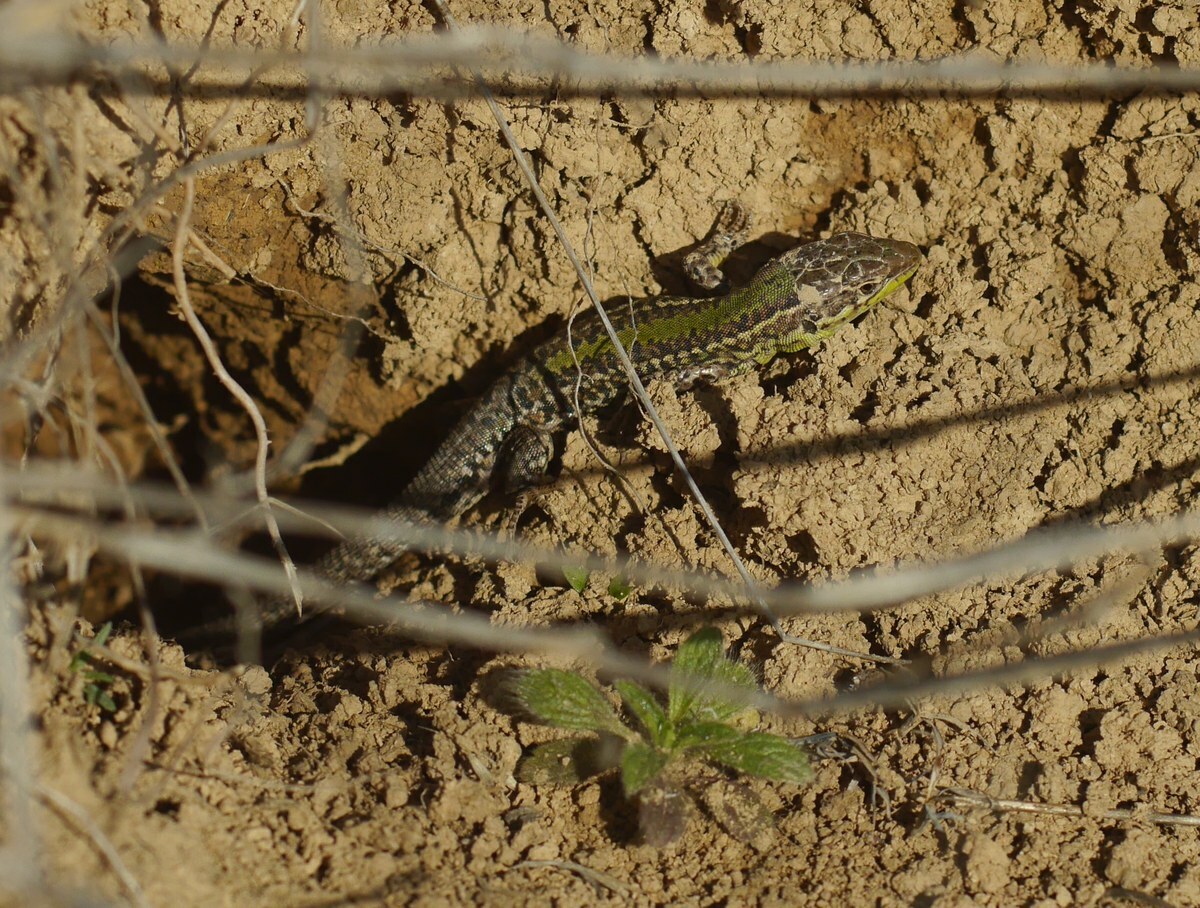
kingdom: Animalia
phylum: Chordata
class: Squamata
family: Lacertidae
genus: Podarcis
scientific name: Podarcis tauricus
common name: Balkan wall lizard
